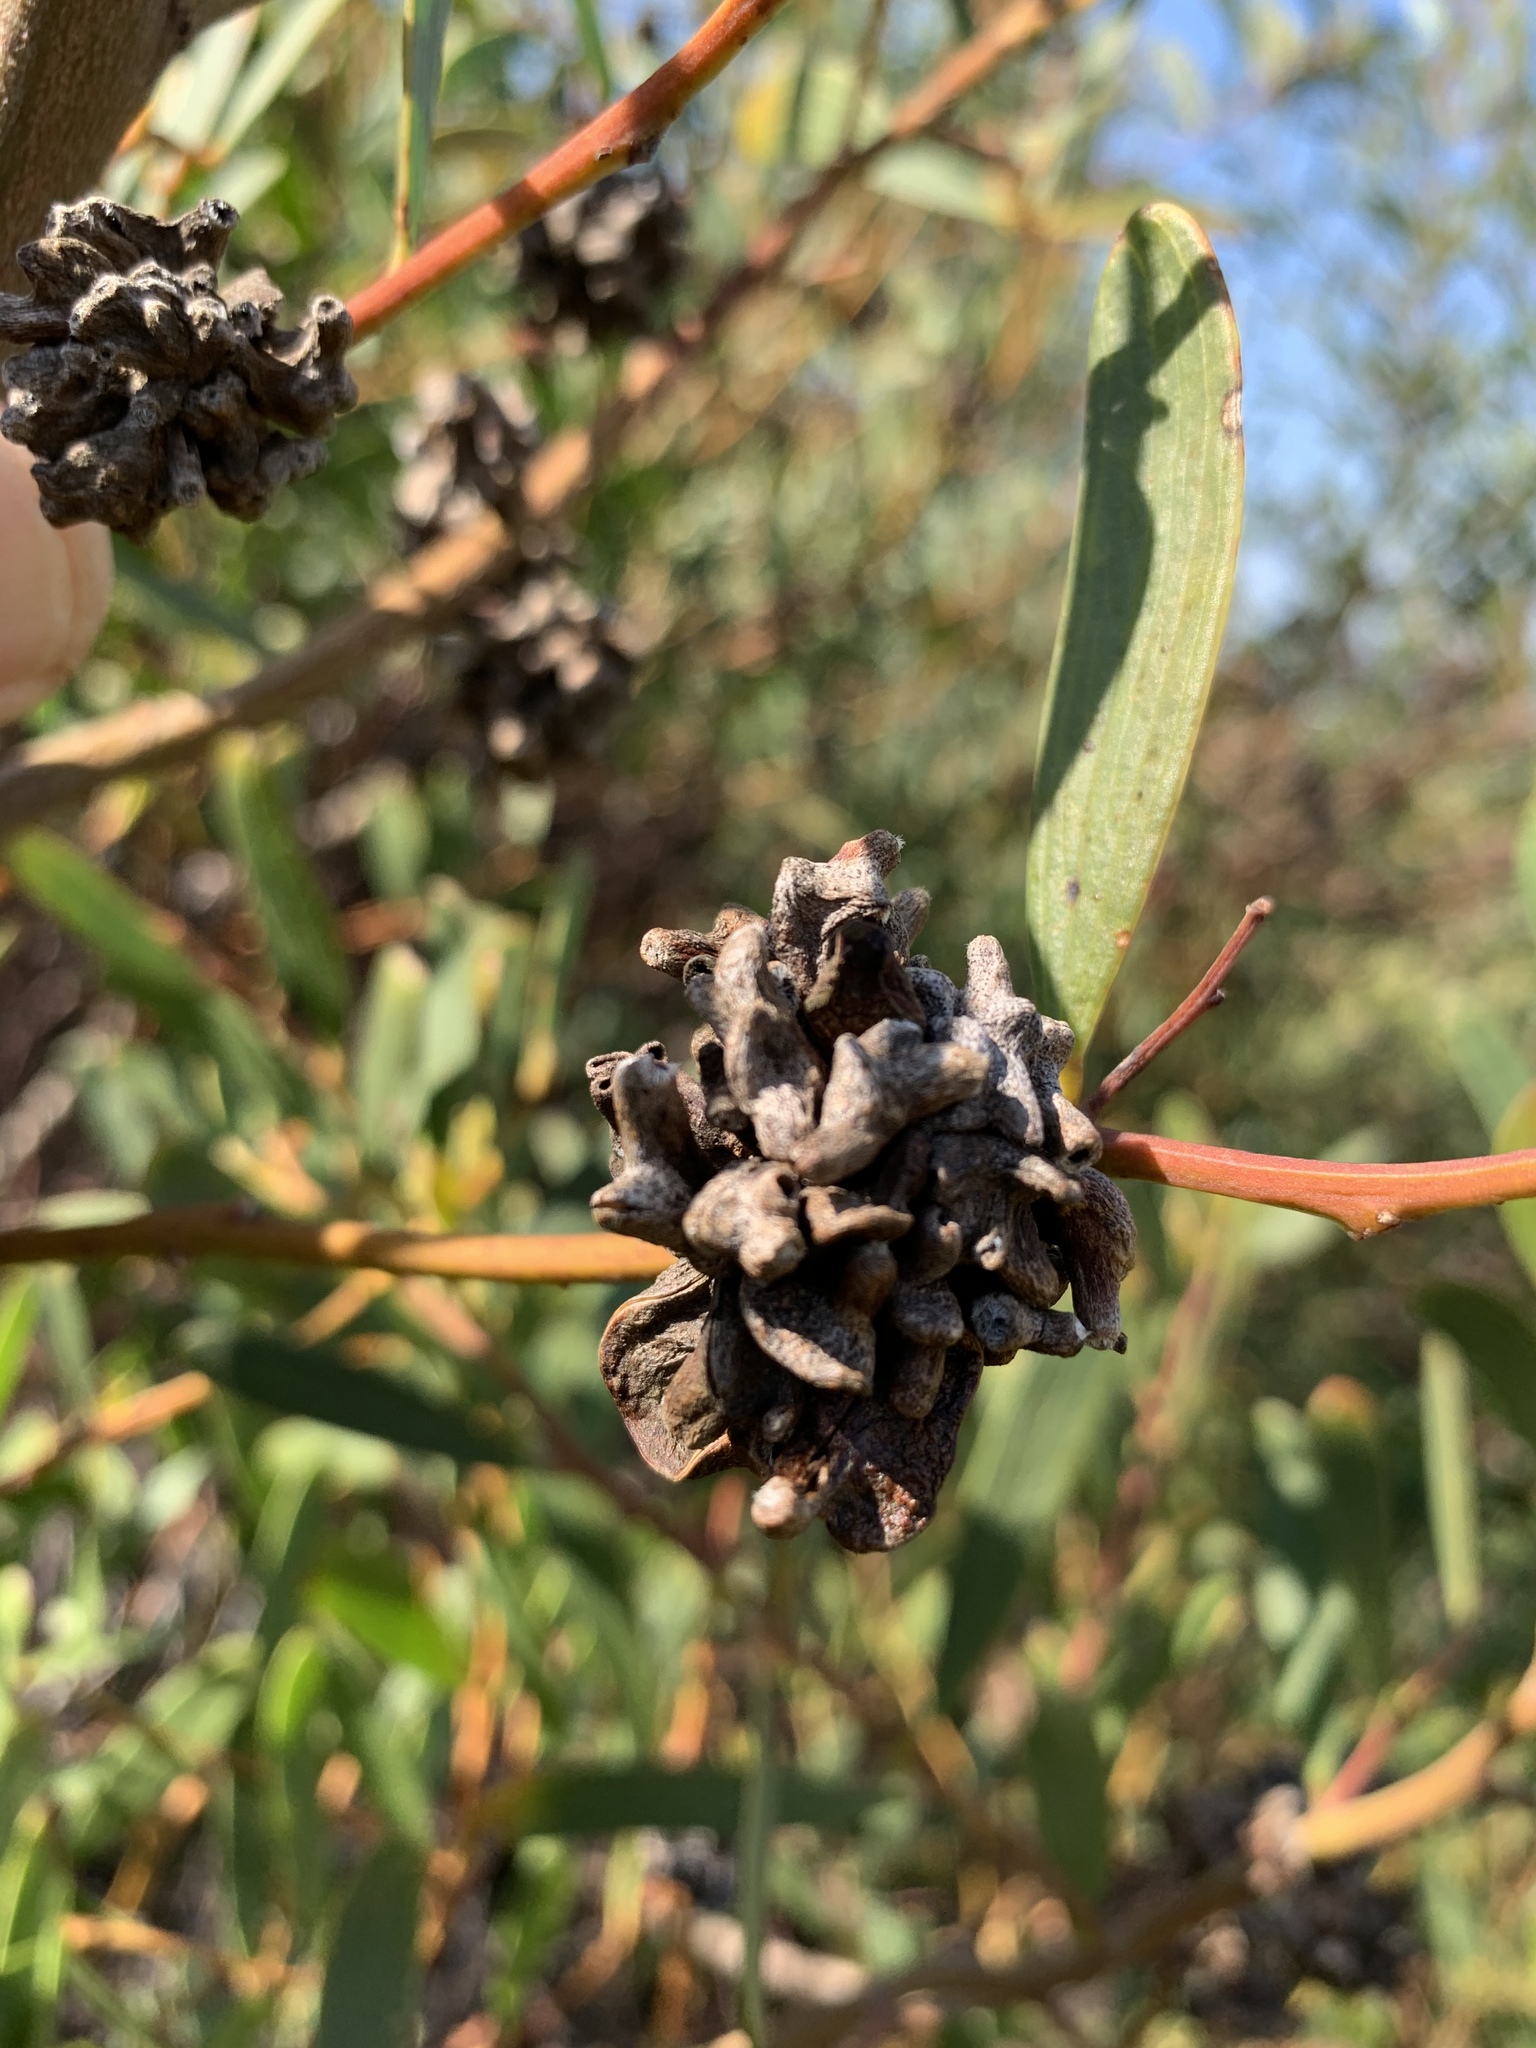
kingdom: Animalia
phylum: Arthropoda
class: Insecta
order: Diptera
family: Cecidomyiidae
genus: Dasineura
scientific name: Dasineura dielsi
